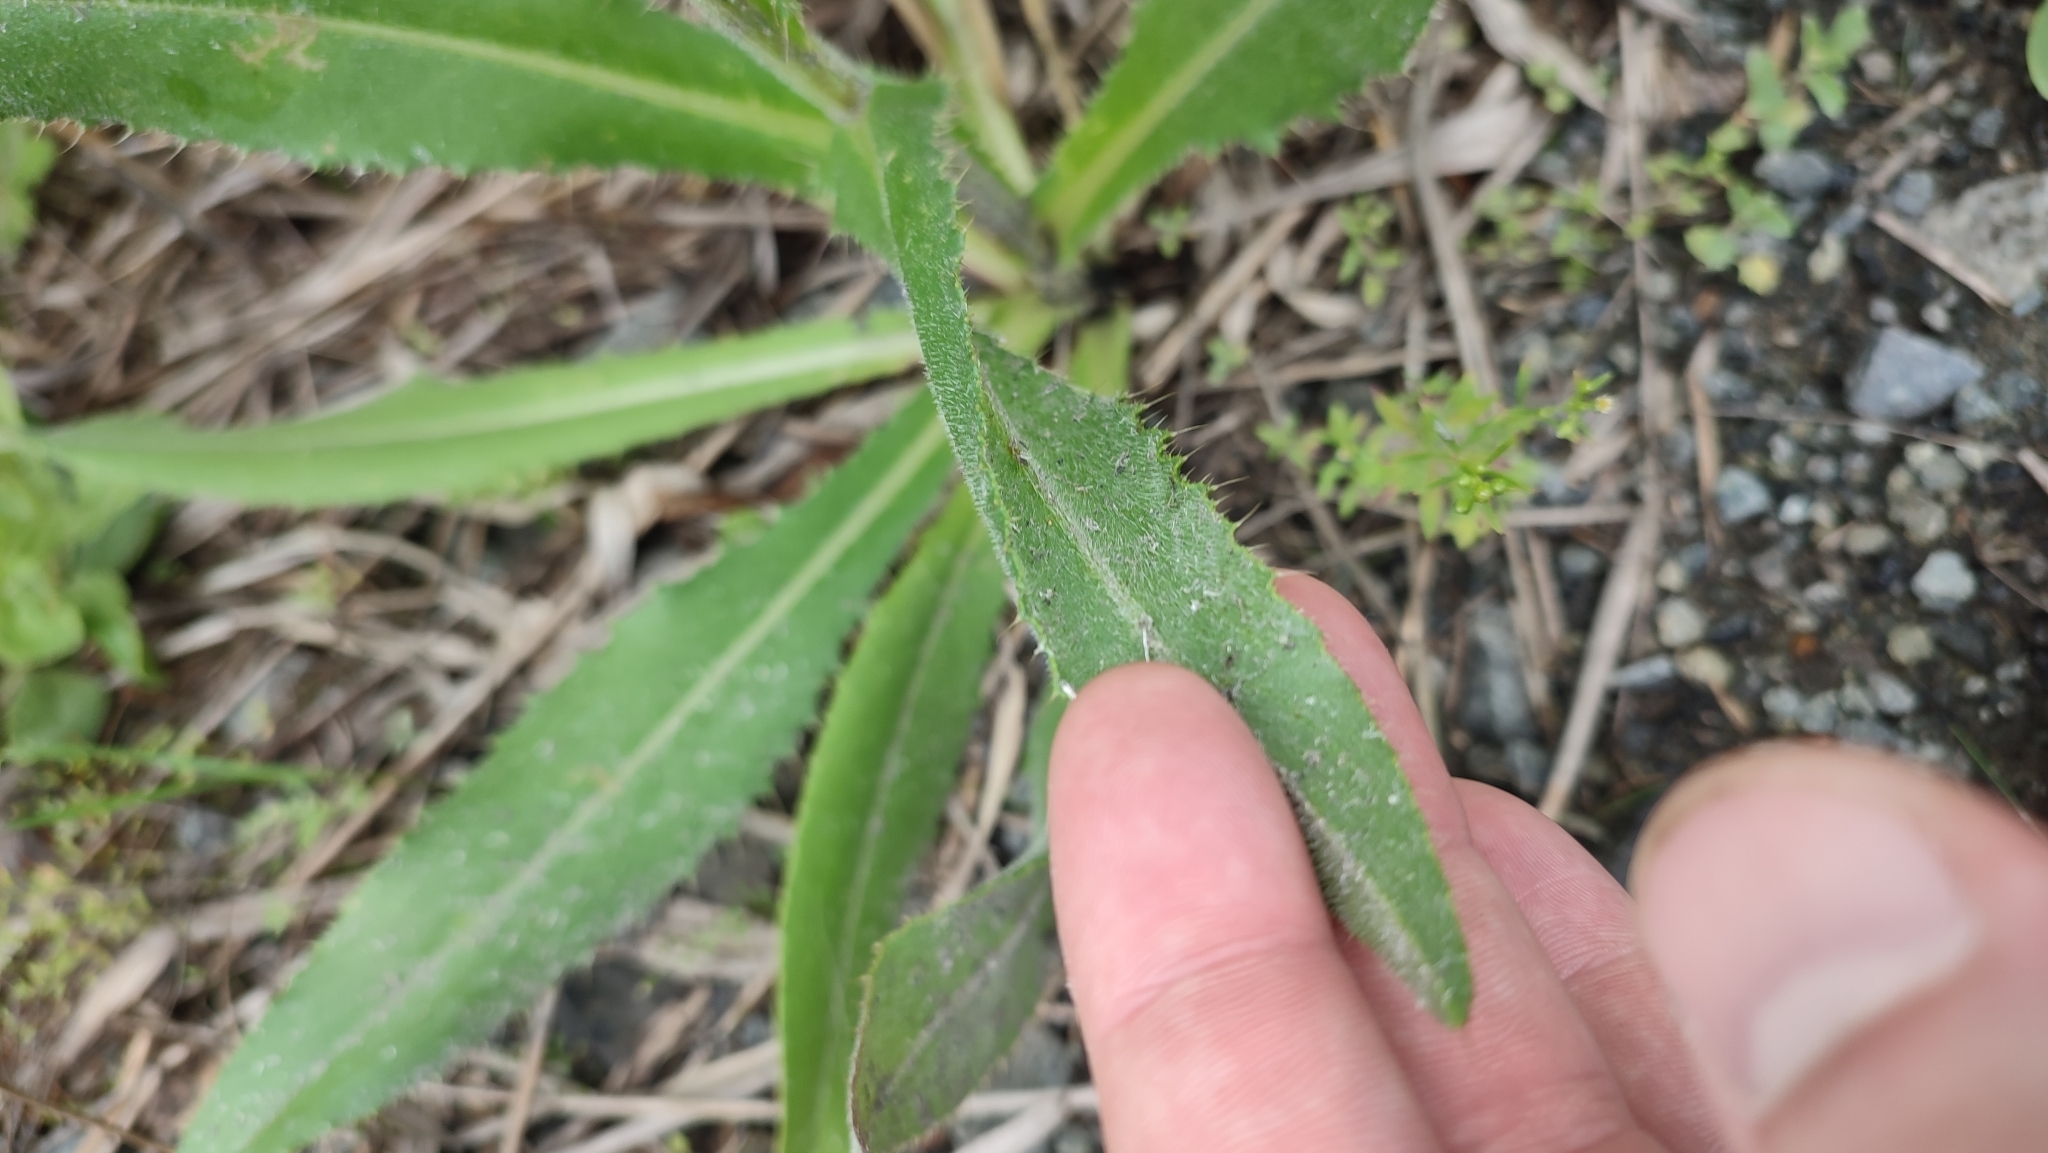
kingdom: Plantae
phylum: Tracheophyta
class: Magnoliopsida
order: Asterales
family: Asteraceae
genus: Cirsium
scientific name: Cirsium canum
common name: Queen anne's thistle
